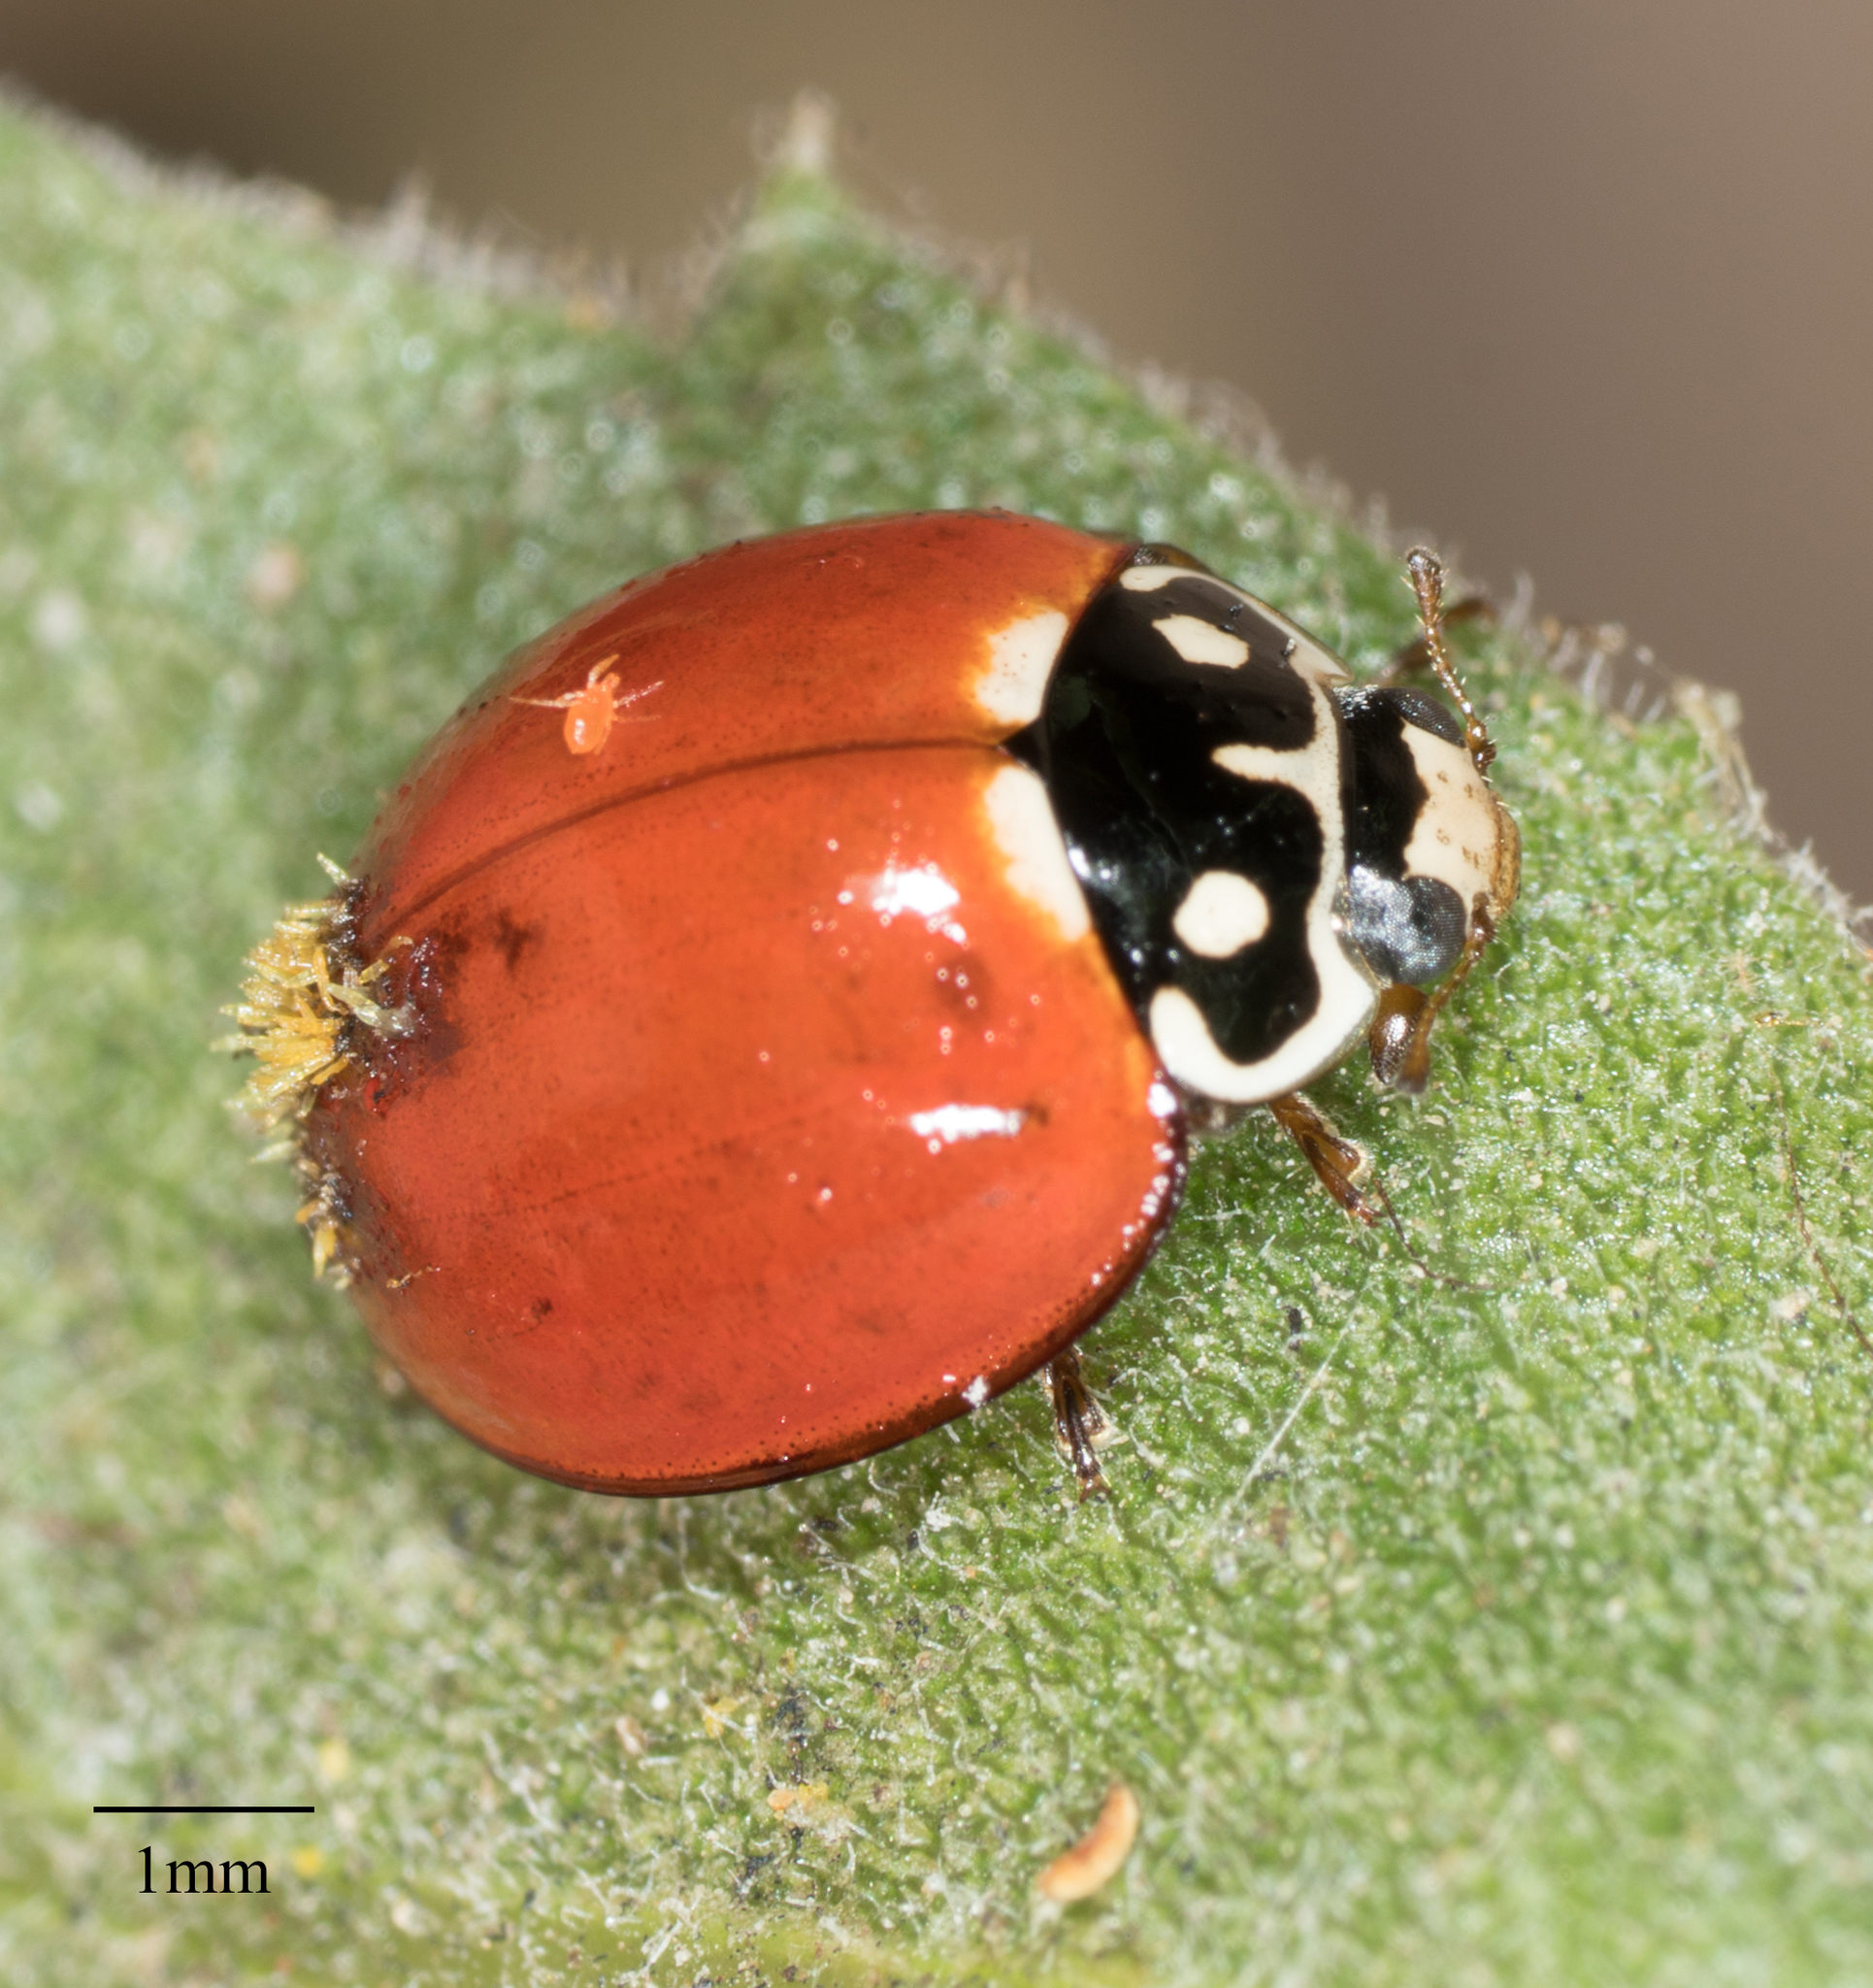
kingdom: Animalia
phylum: Arthropoda
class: Insecta
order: Coleoptera
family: Coccinellidae
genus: Cycloneda
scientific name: Cycloneda sanguinea
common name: Ladybird beetle
